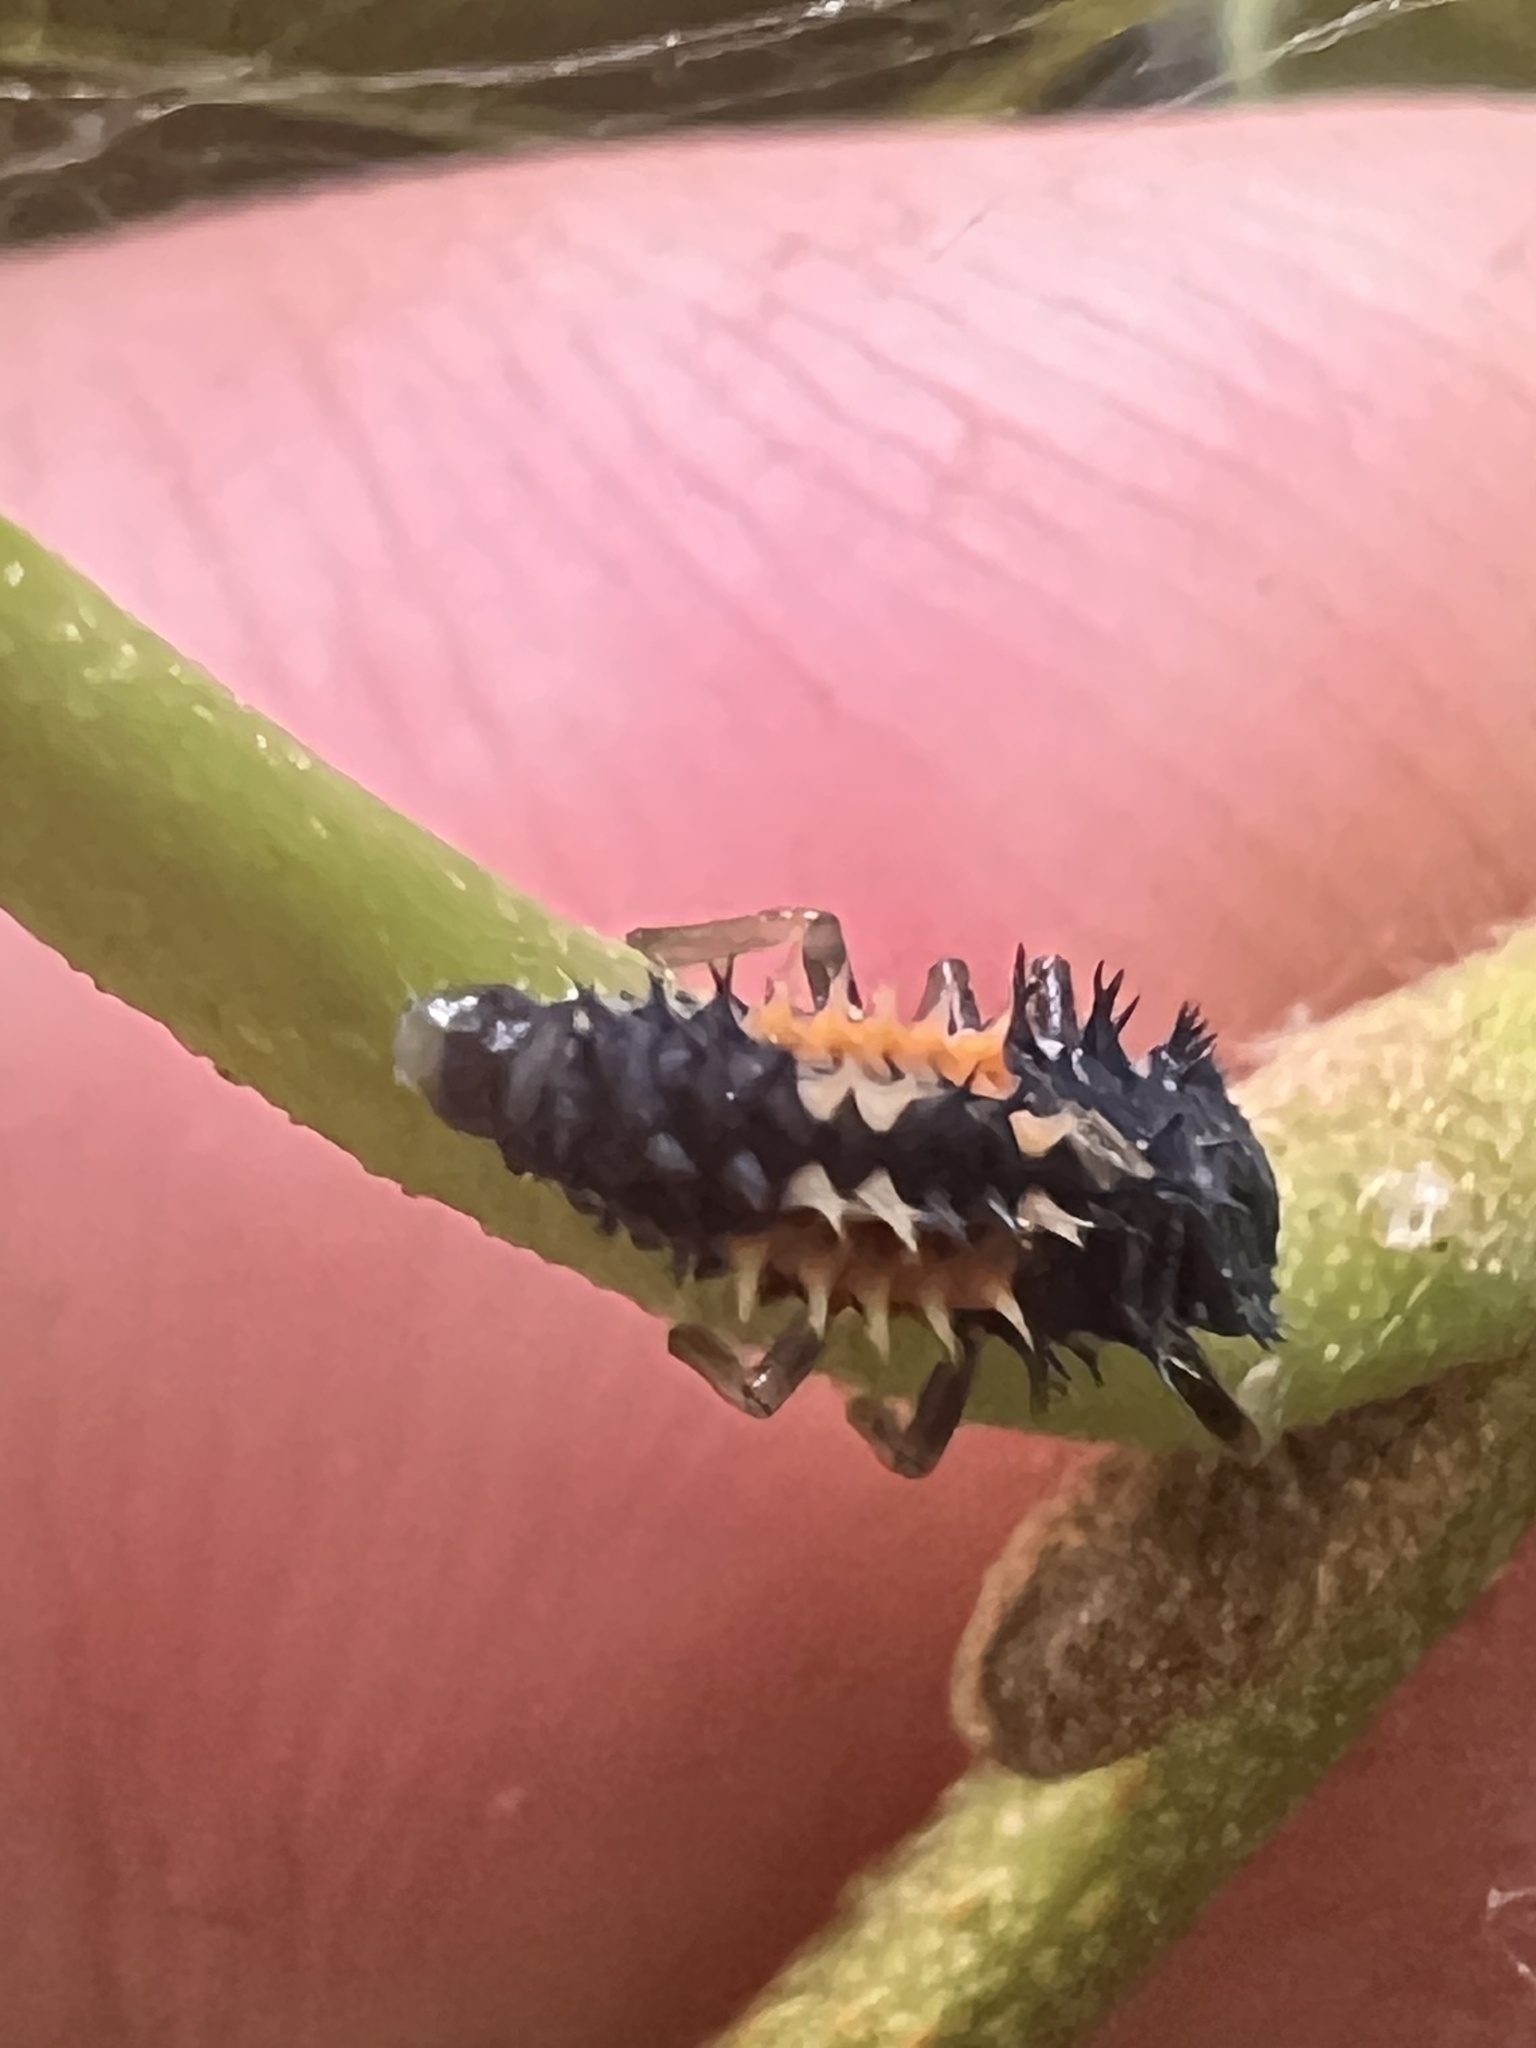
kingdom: Animalia
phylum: Arthropoda
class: Insecta
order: Coleoptera
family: Coccinellidae
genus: Harmonia
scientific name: Harmonia axyridis
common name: Harlequin ladybird
